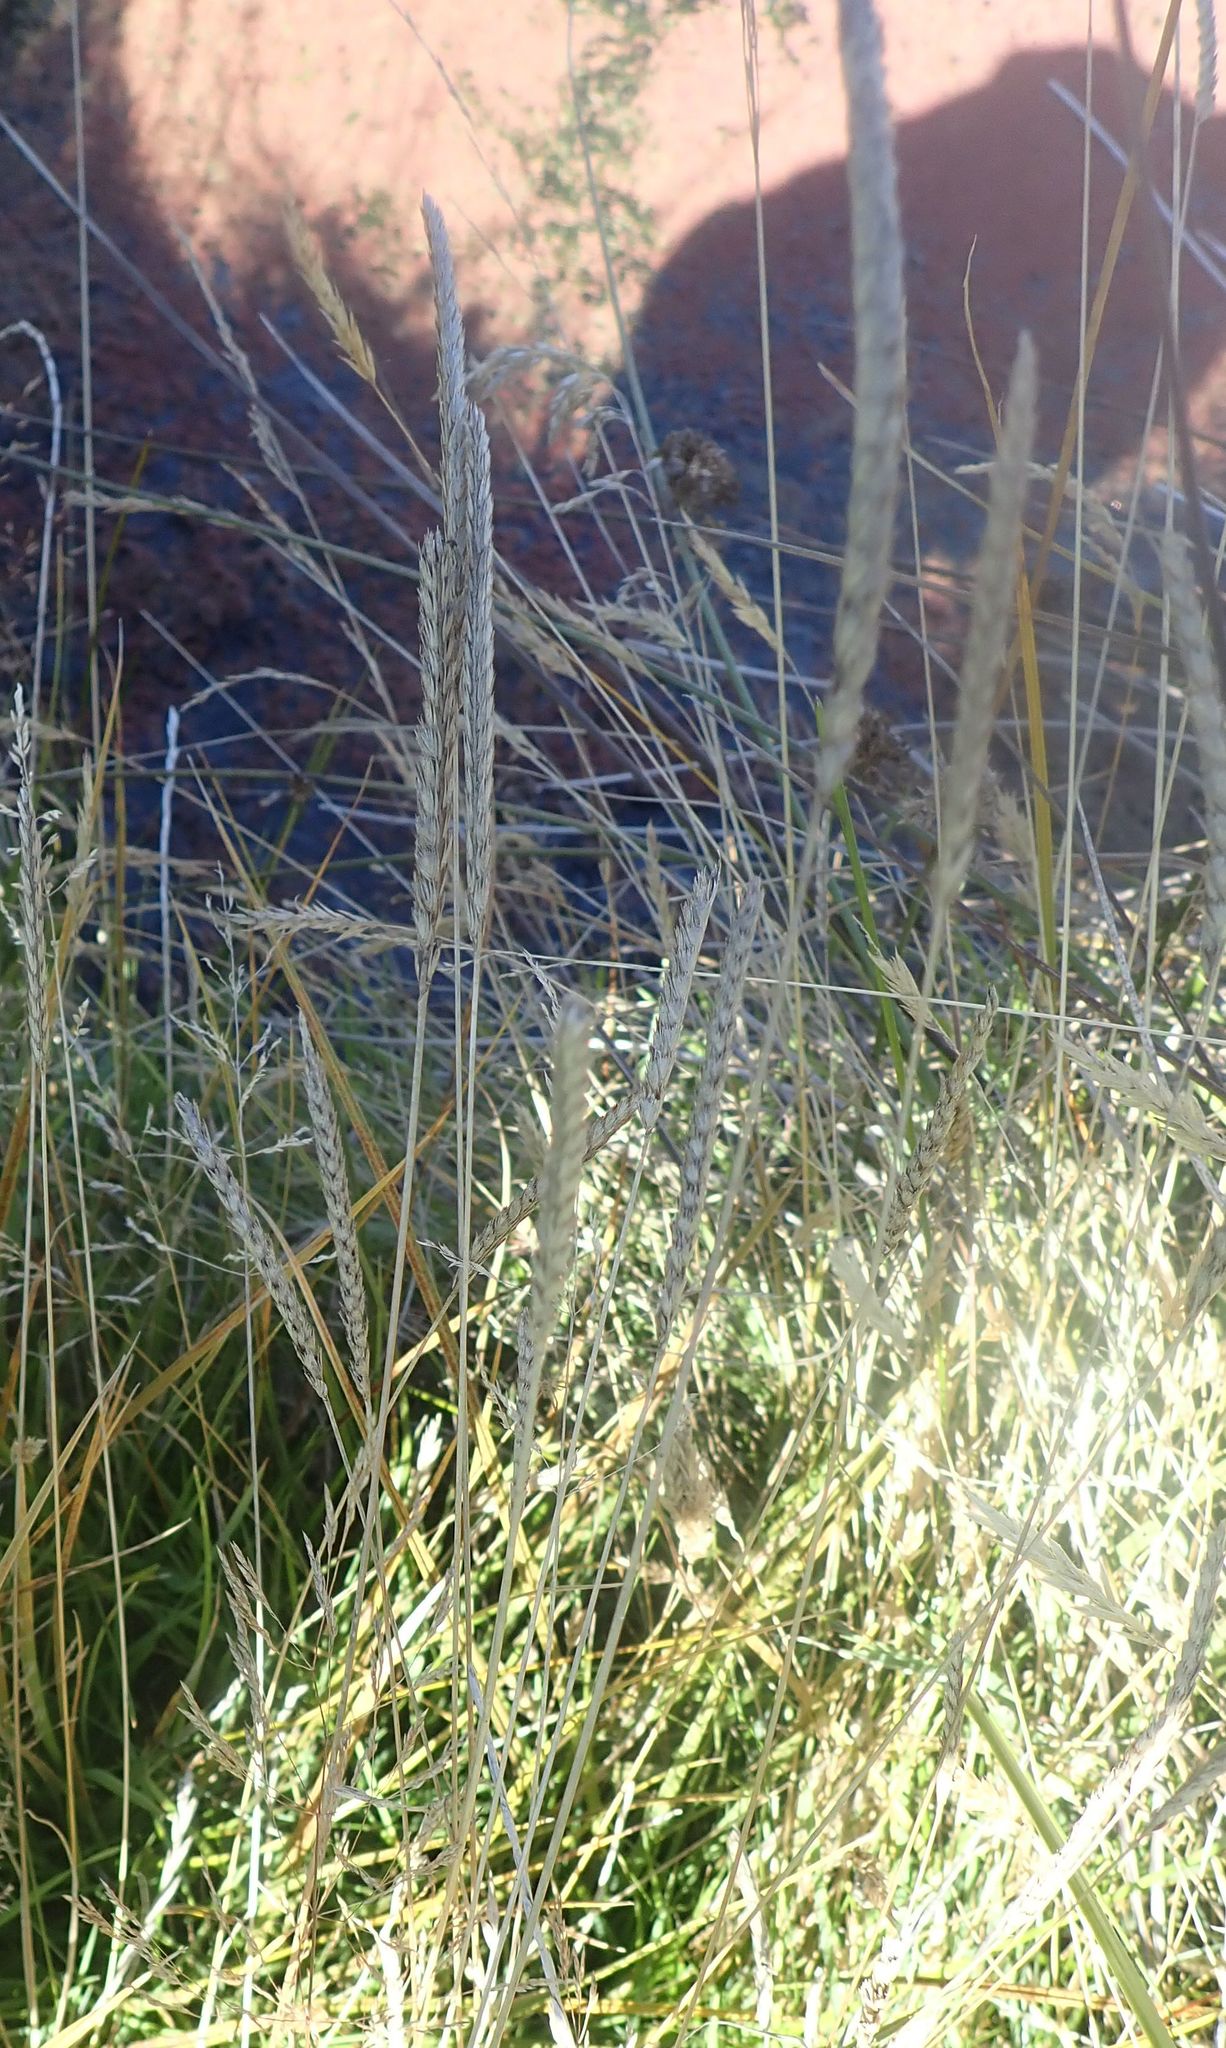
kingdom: Plantae
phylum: Tracheophyta
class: Liliopsida
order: Poales
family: Poaceae
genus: Cynosurus
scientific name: Cynosurus cristatus
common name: Crested dog's-tail
